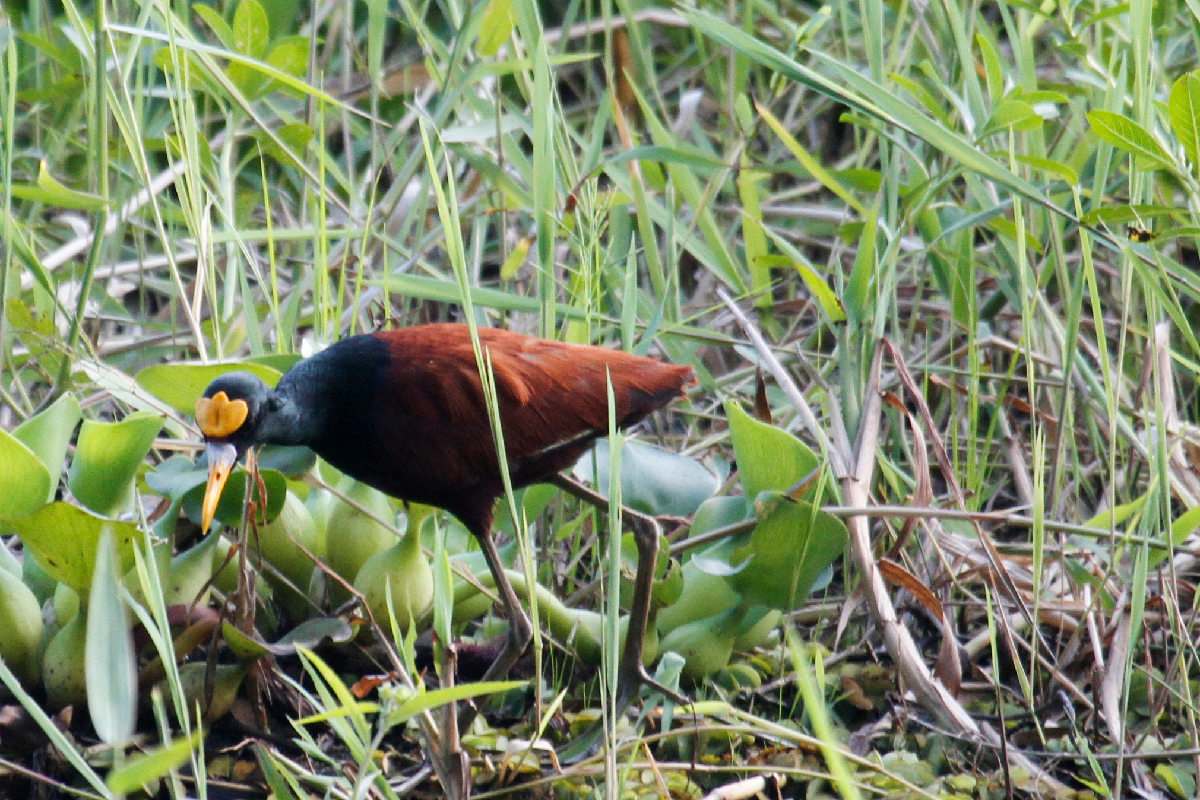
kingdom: Animalia
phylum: Chordata
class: Aves
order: Charadriiformes
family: Jacanidae
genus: Jacana
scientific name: Jacana spinosa
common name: Northern jacana
